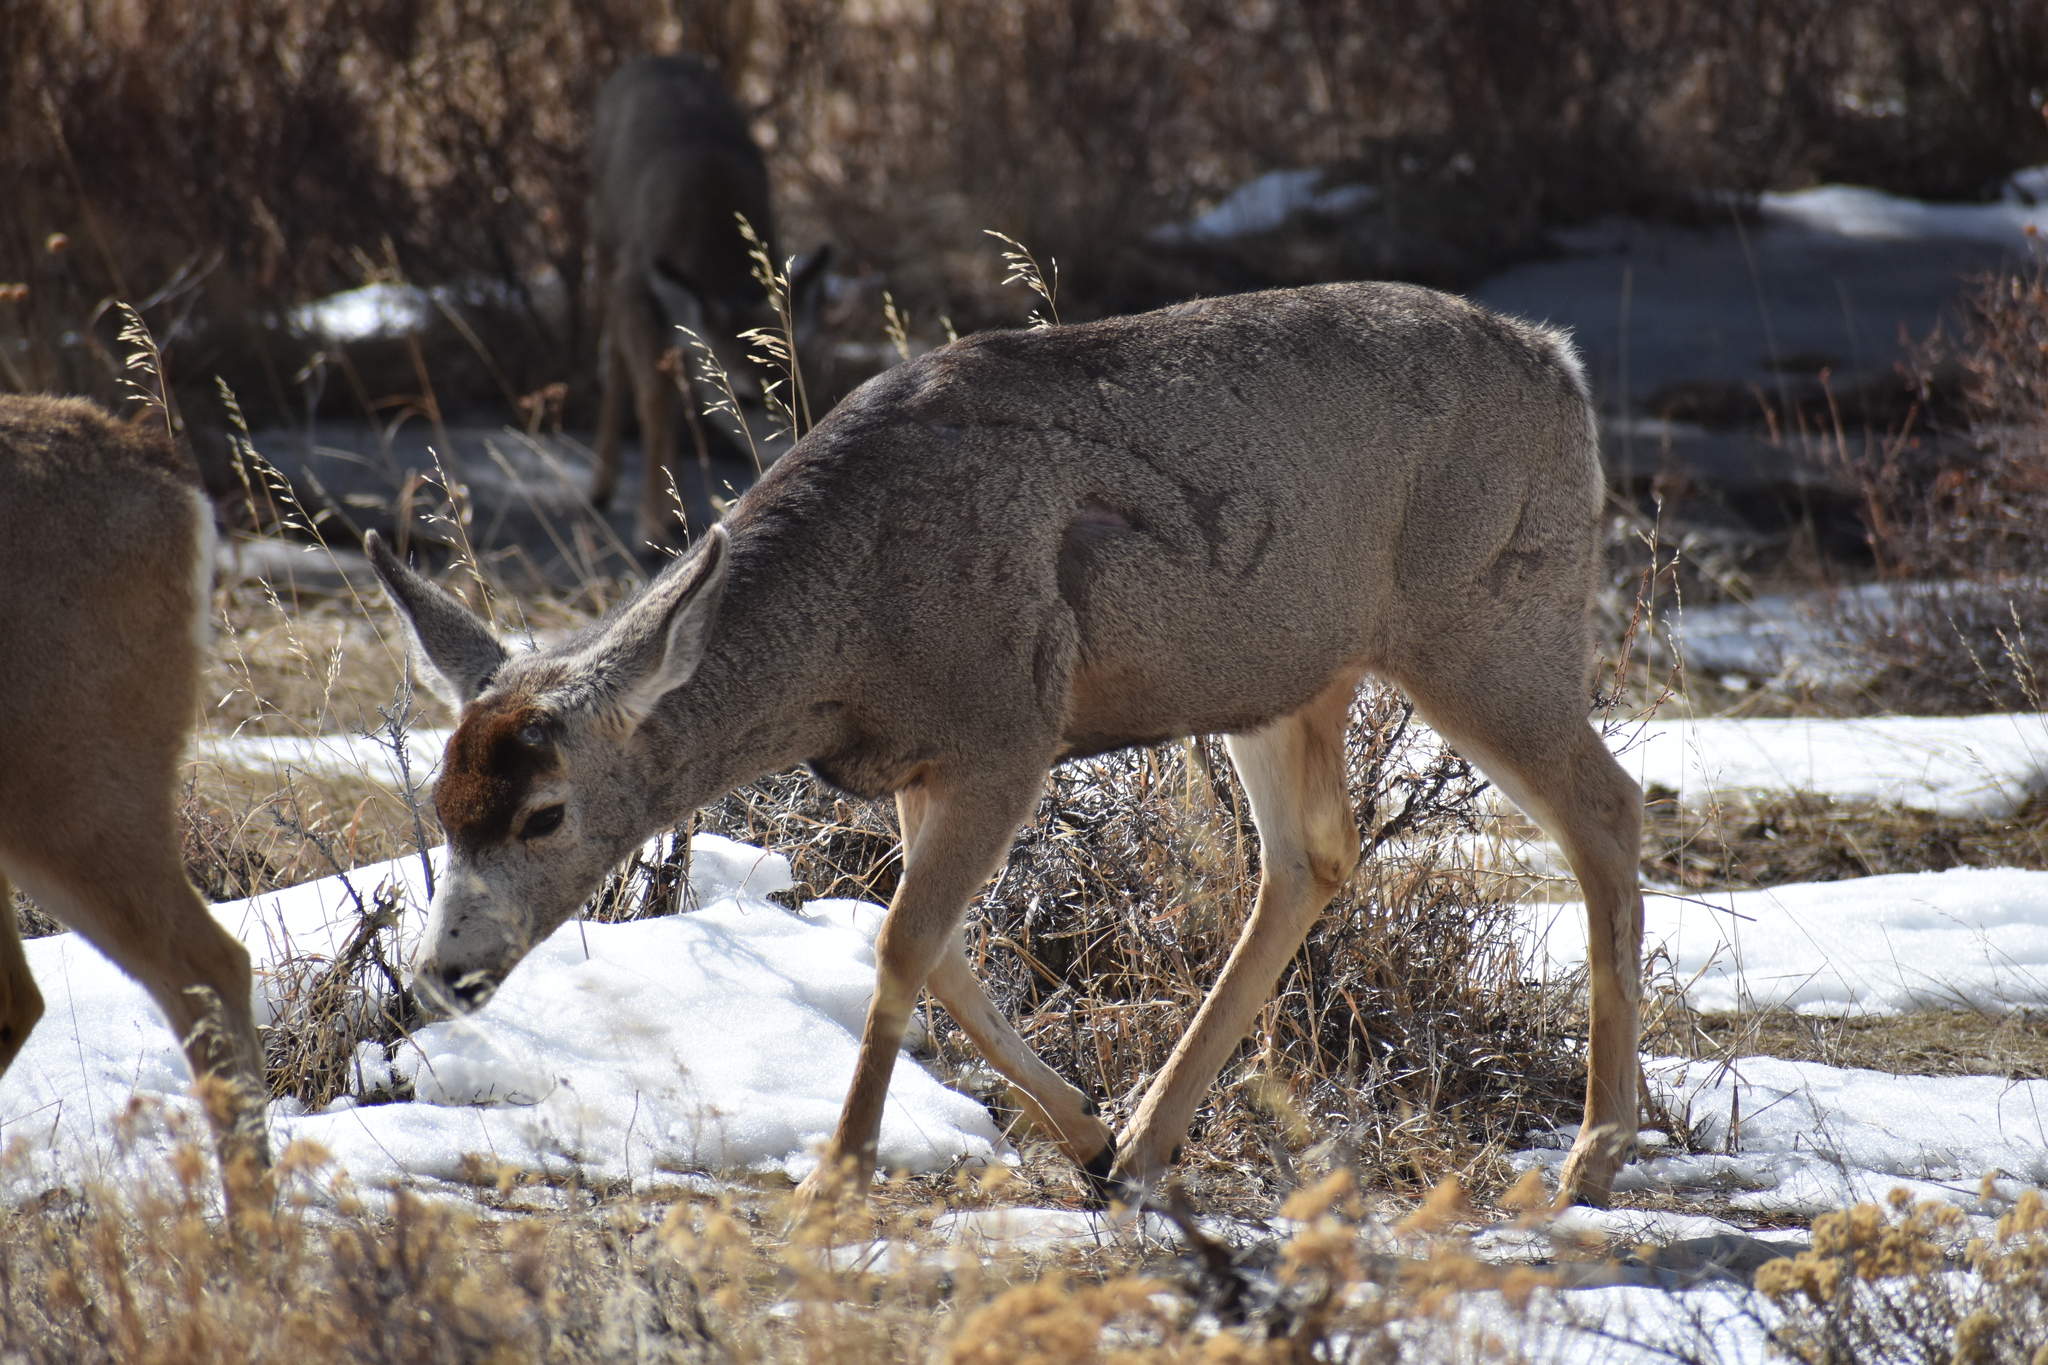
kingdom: Animalia
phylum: Chordata
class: Mammalia
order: Artiodactyla
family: Cervidae
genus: Odocoileus
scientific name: Odocoileus hemionus
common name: Mule deer
